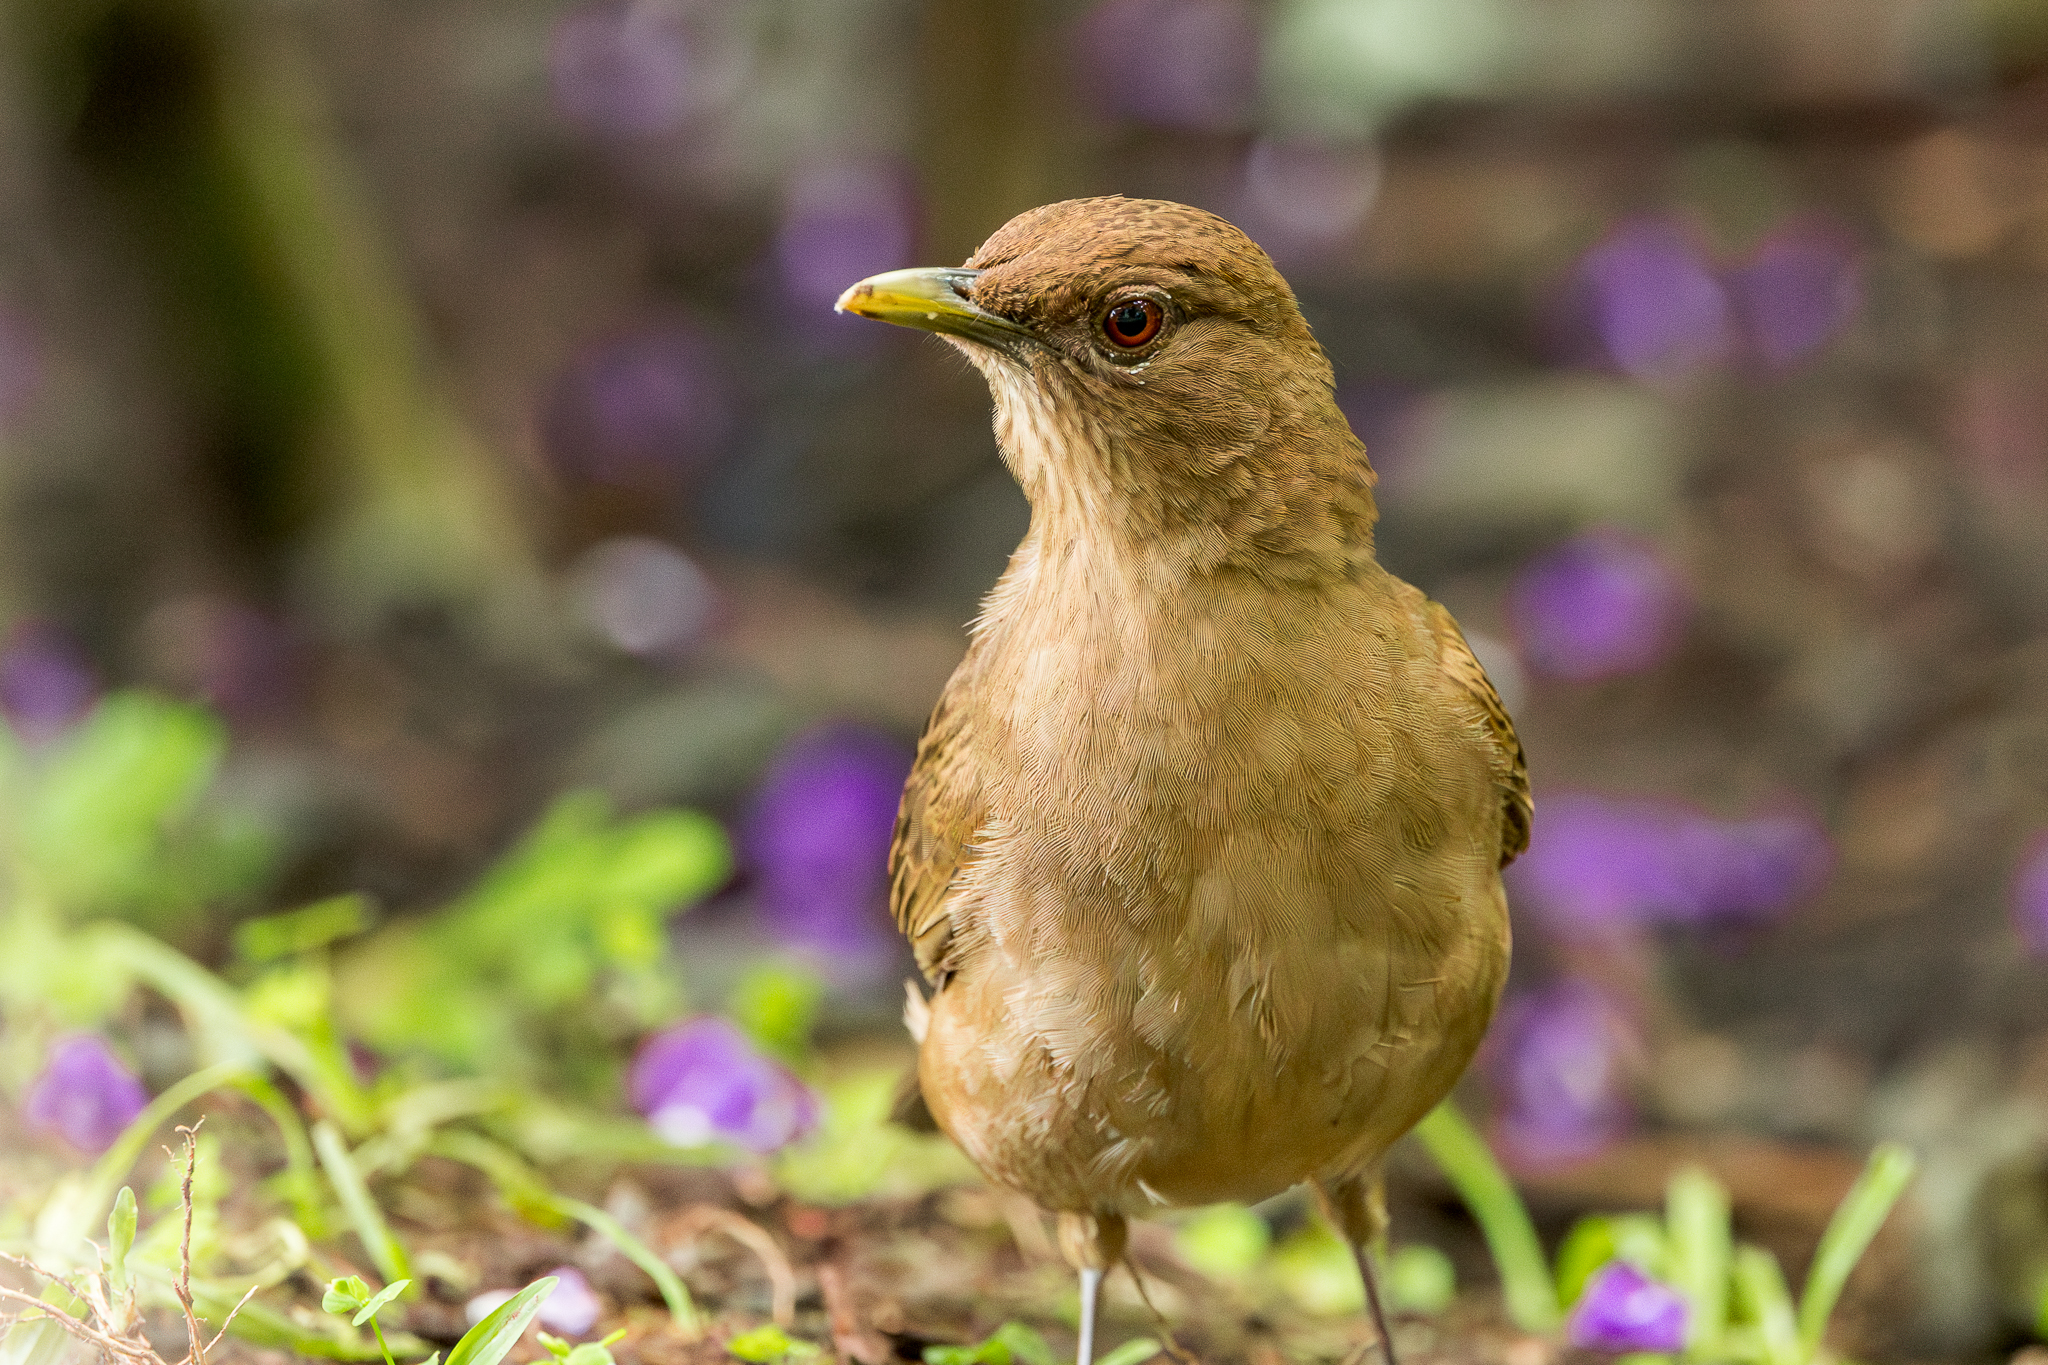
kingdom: Animalia
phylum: Chordata
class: Aves
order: Passeriformes
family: Turdidae
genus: Turdus
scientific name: Turdus grayi
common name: Clay-colored thrush
